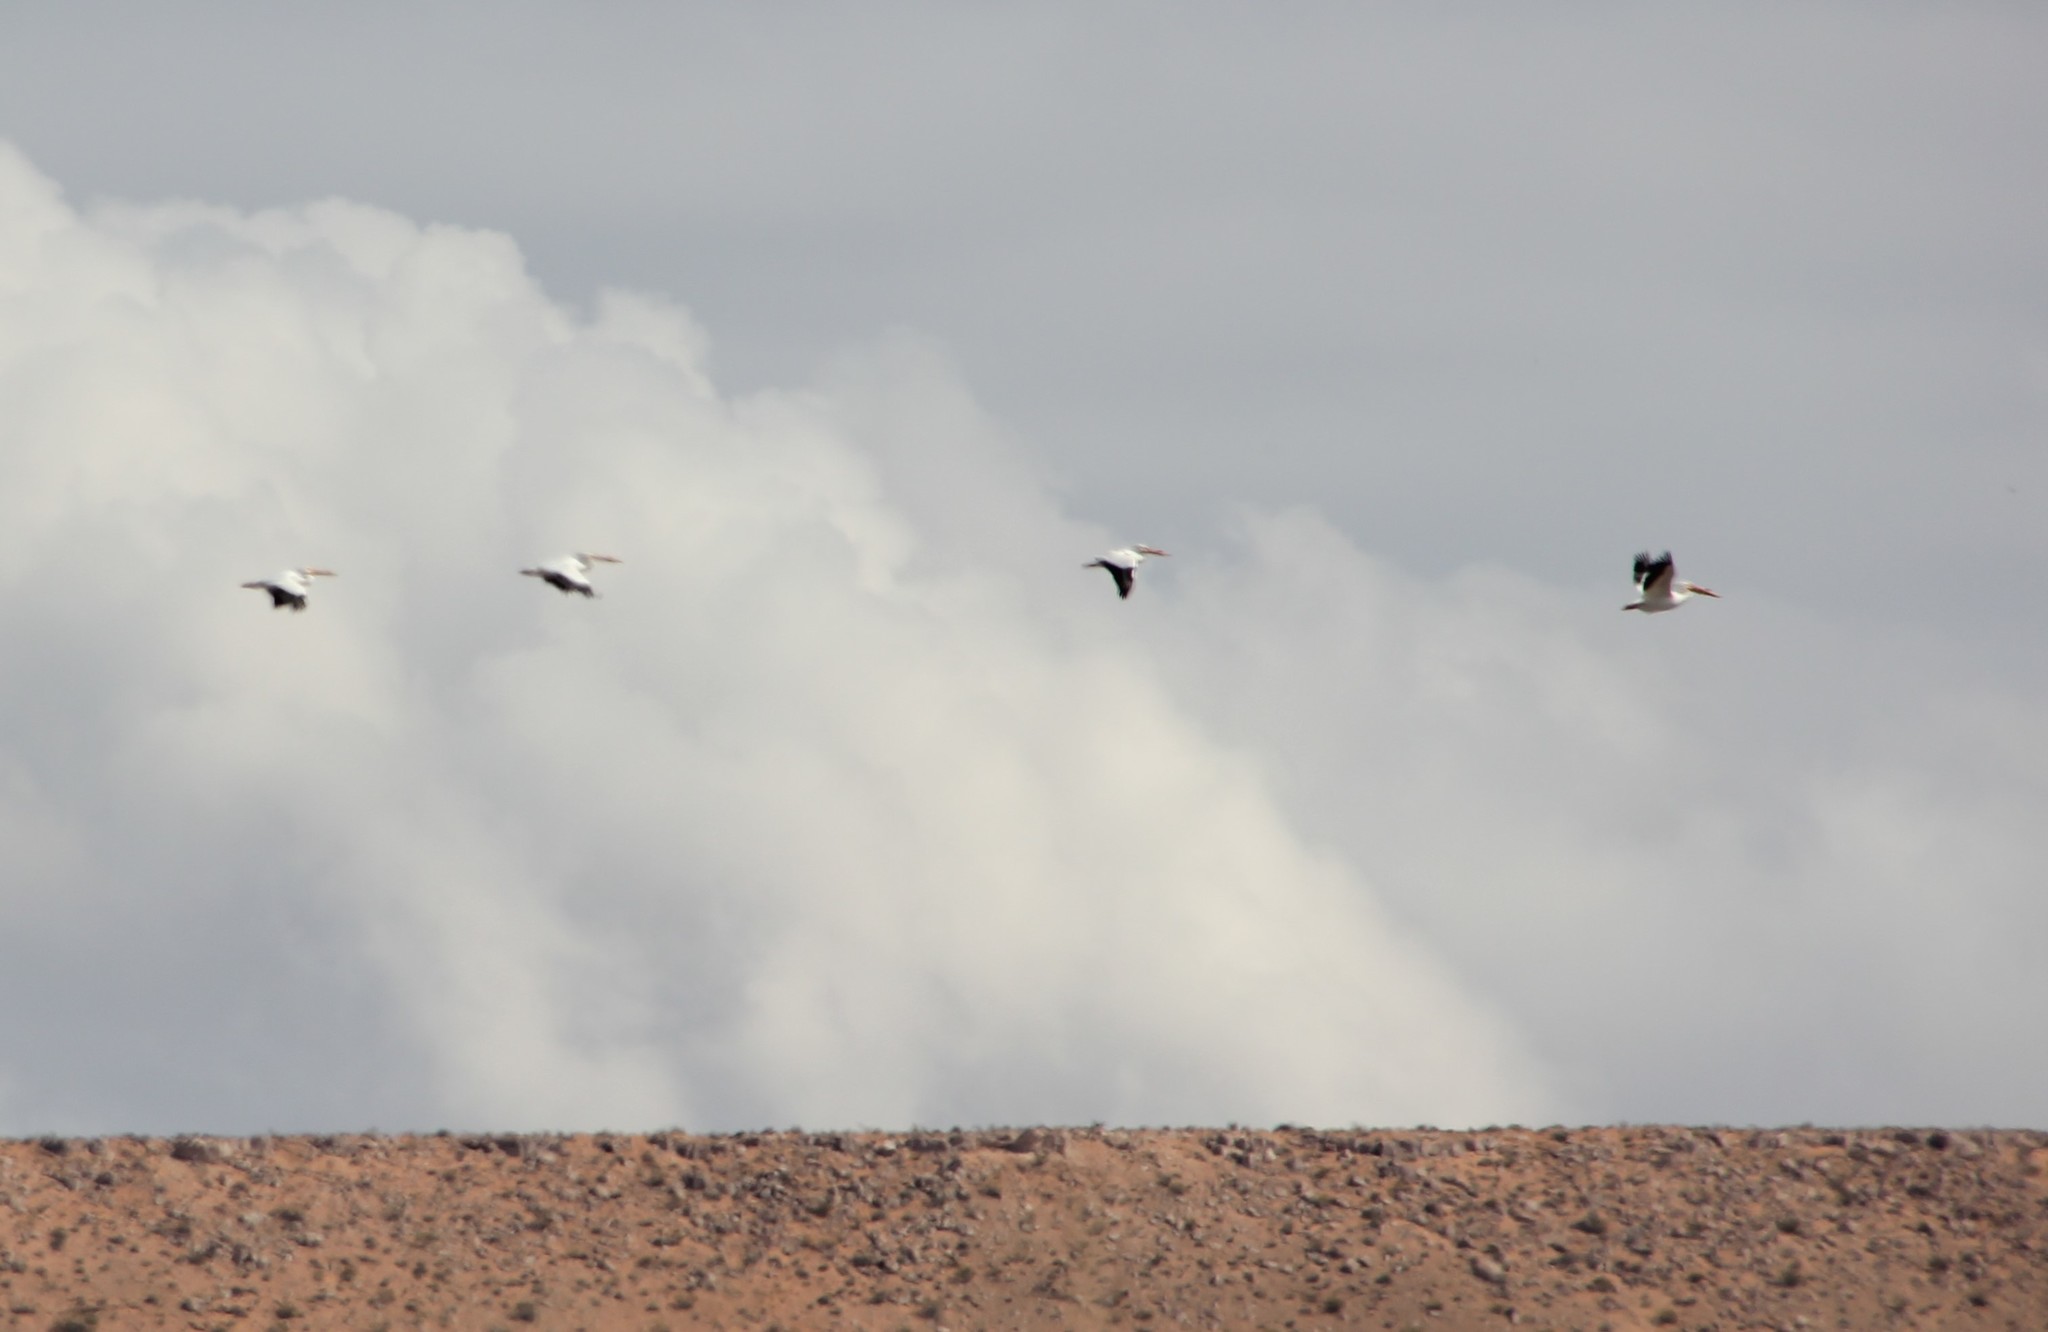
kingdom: Animalia
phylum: Chordata
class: Aves
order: Pelecaniformes
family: Pelecanidae
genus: Pelecanus
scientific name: Pelecanus erythrorhynchos
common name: American white pelican
